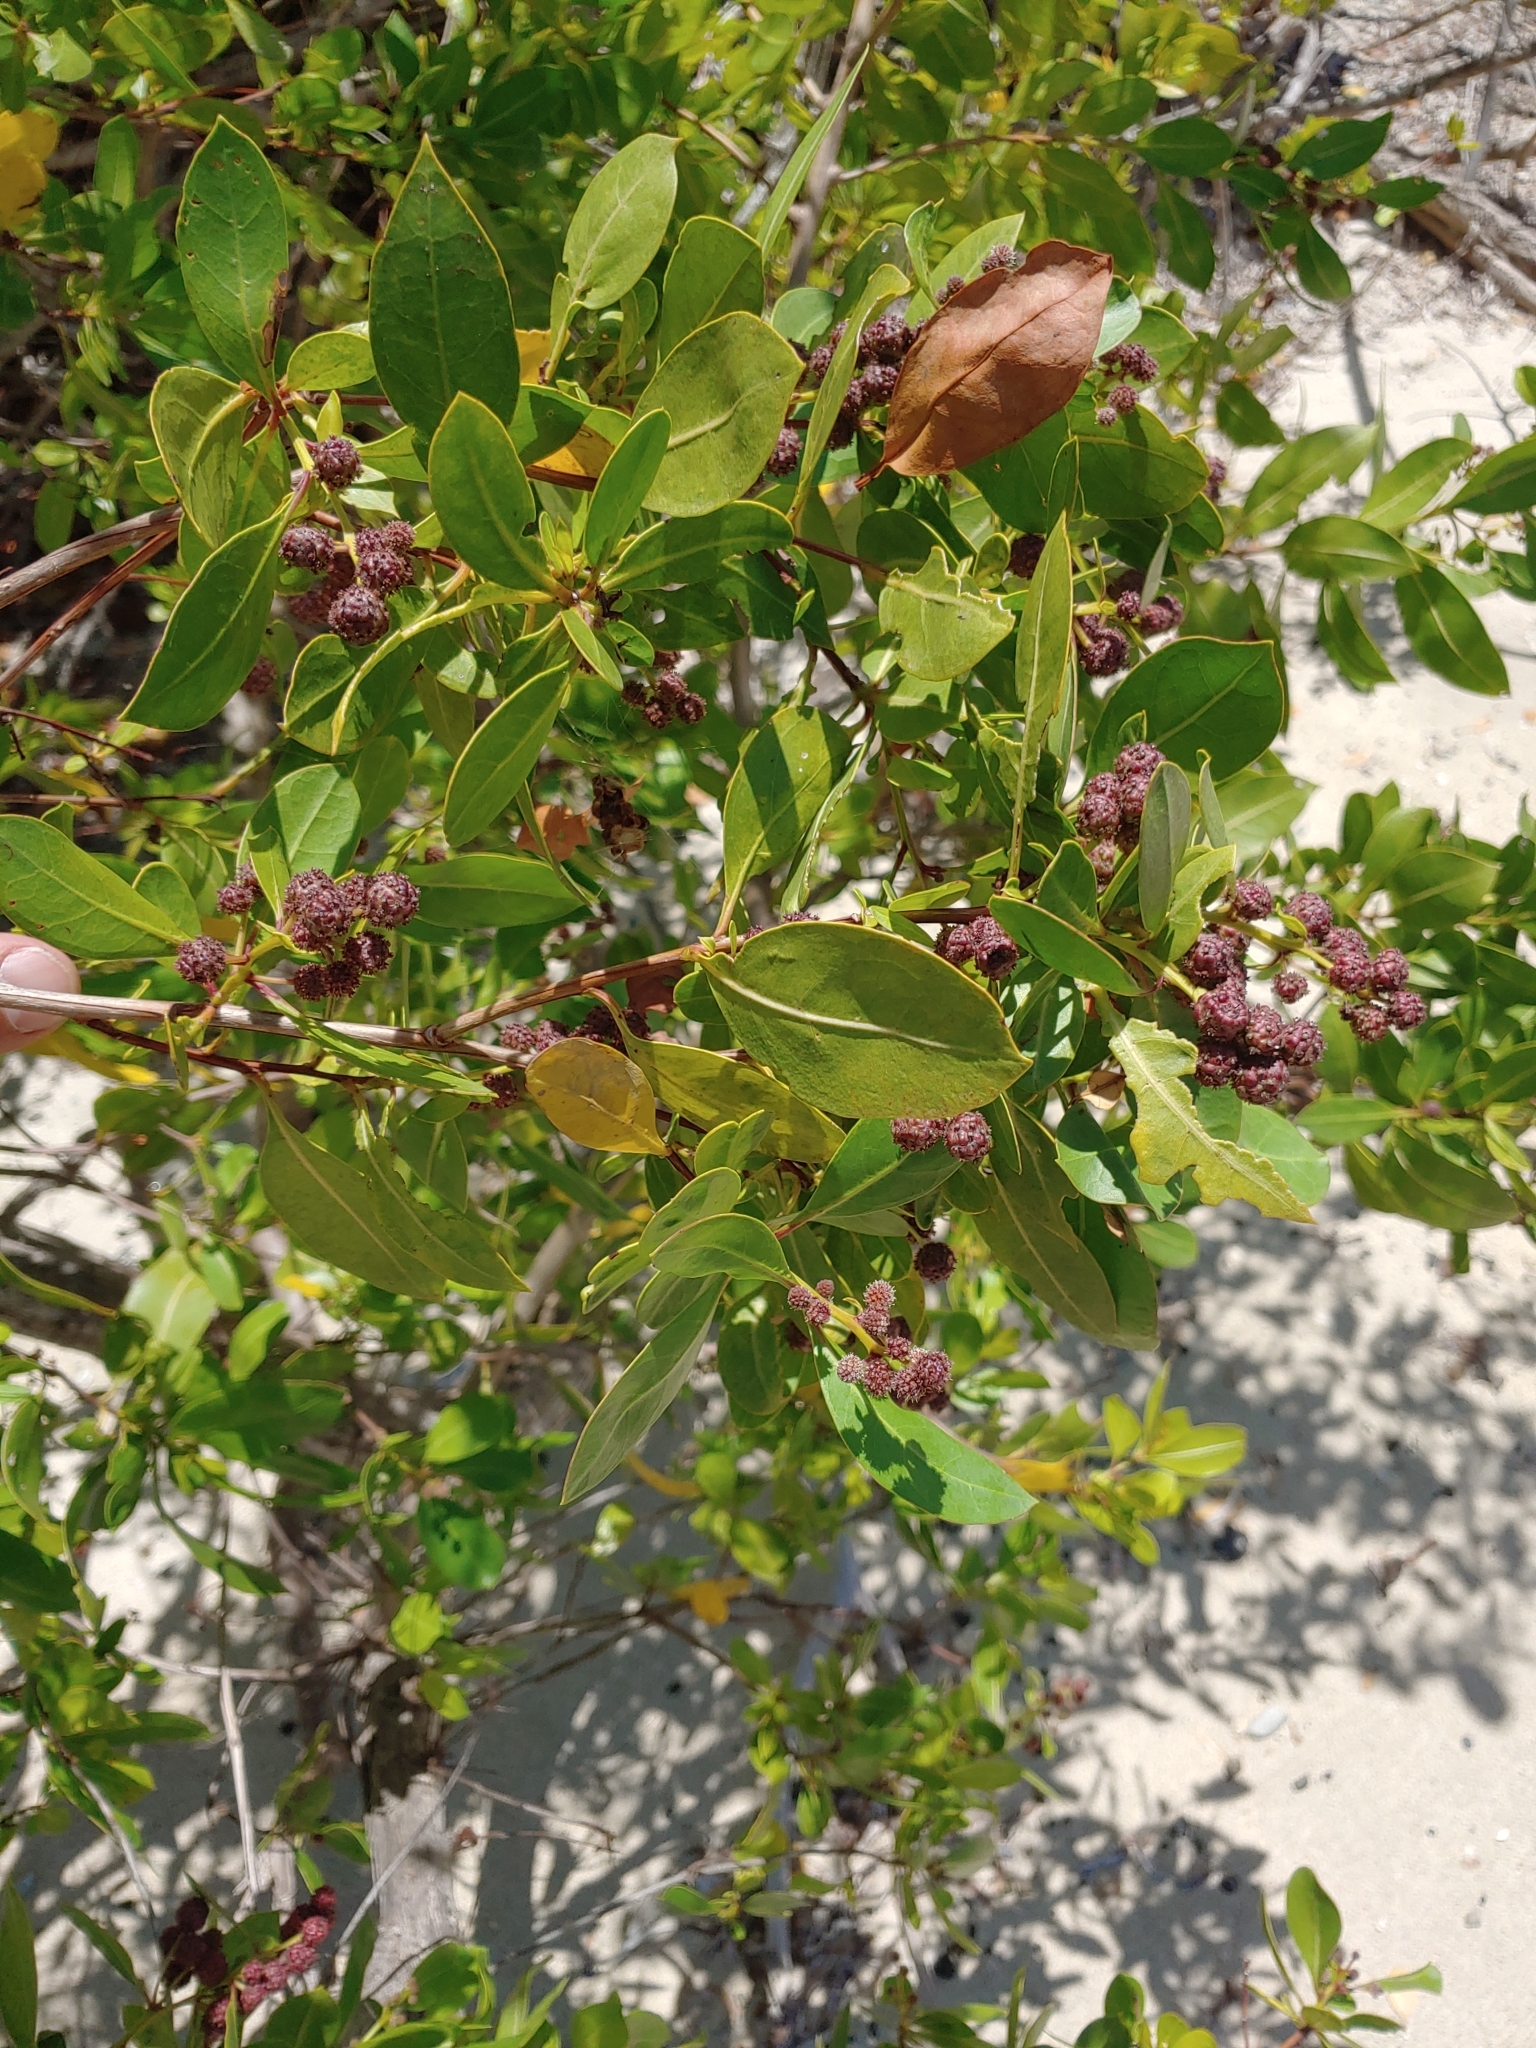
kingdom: Plantae
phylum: Tracheophyta
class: Magnoliopsida
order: Myrtales
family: Combretaceae
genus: Conocarpus
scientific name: Conocarpus erectus
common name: Button mangrove
